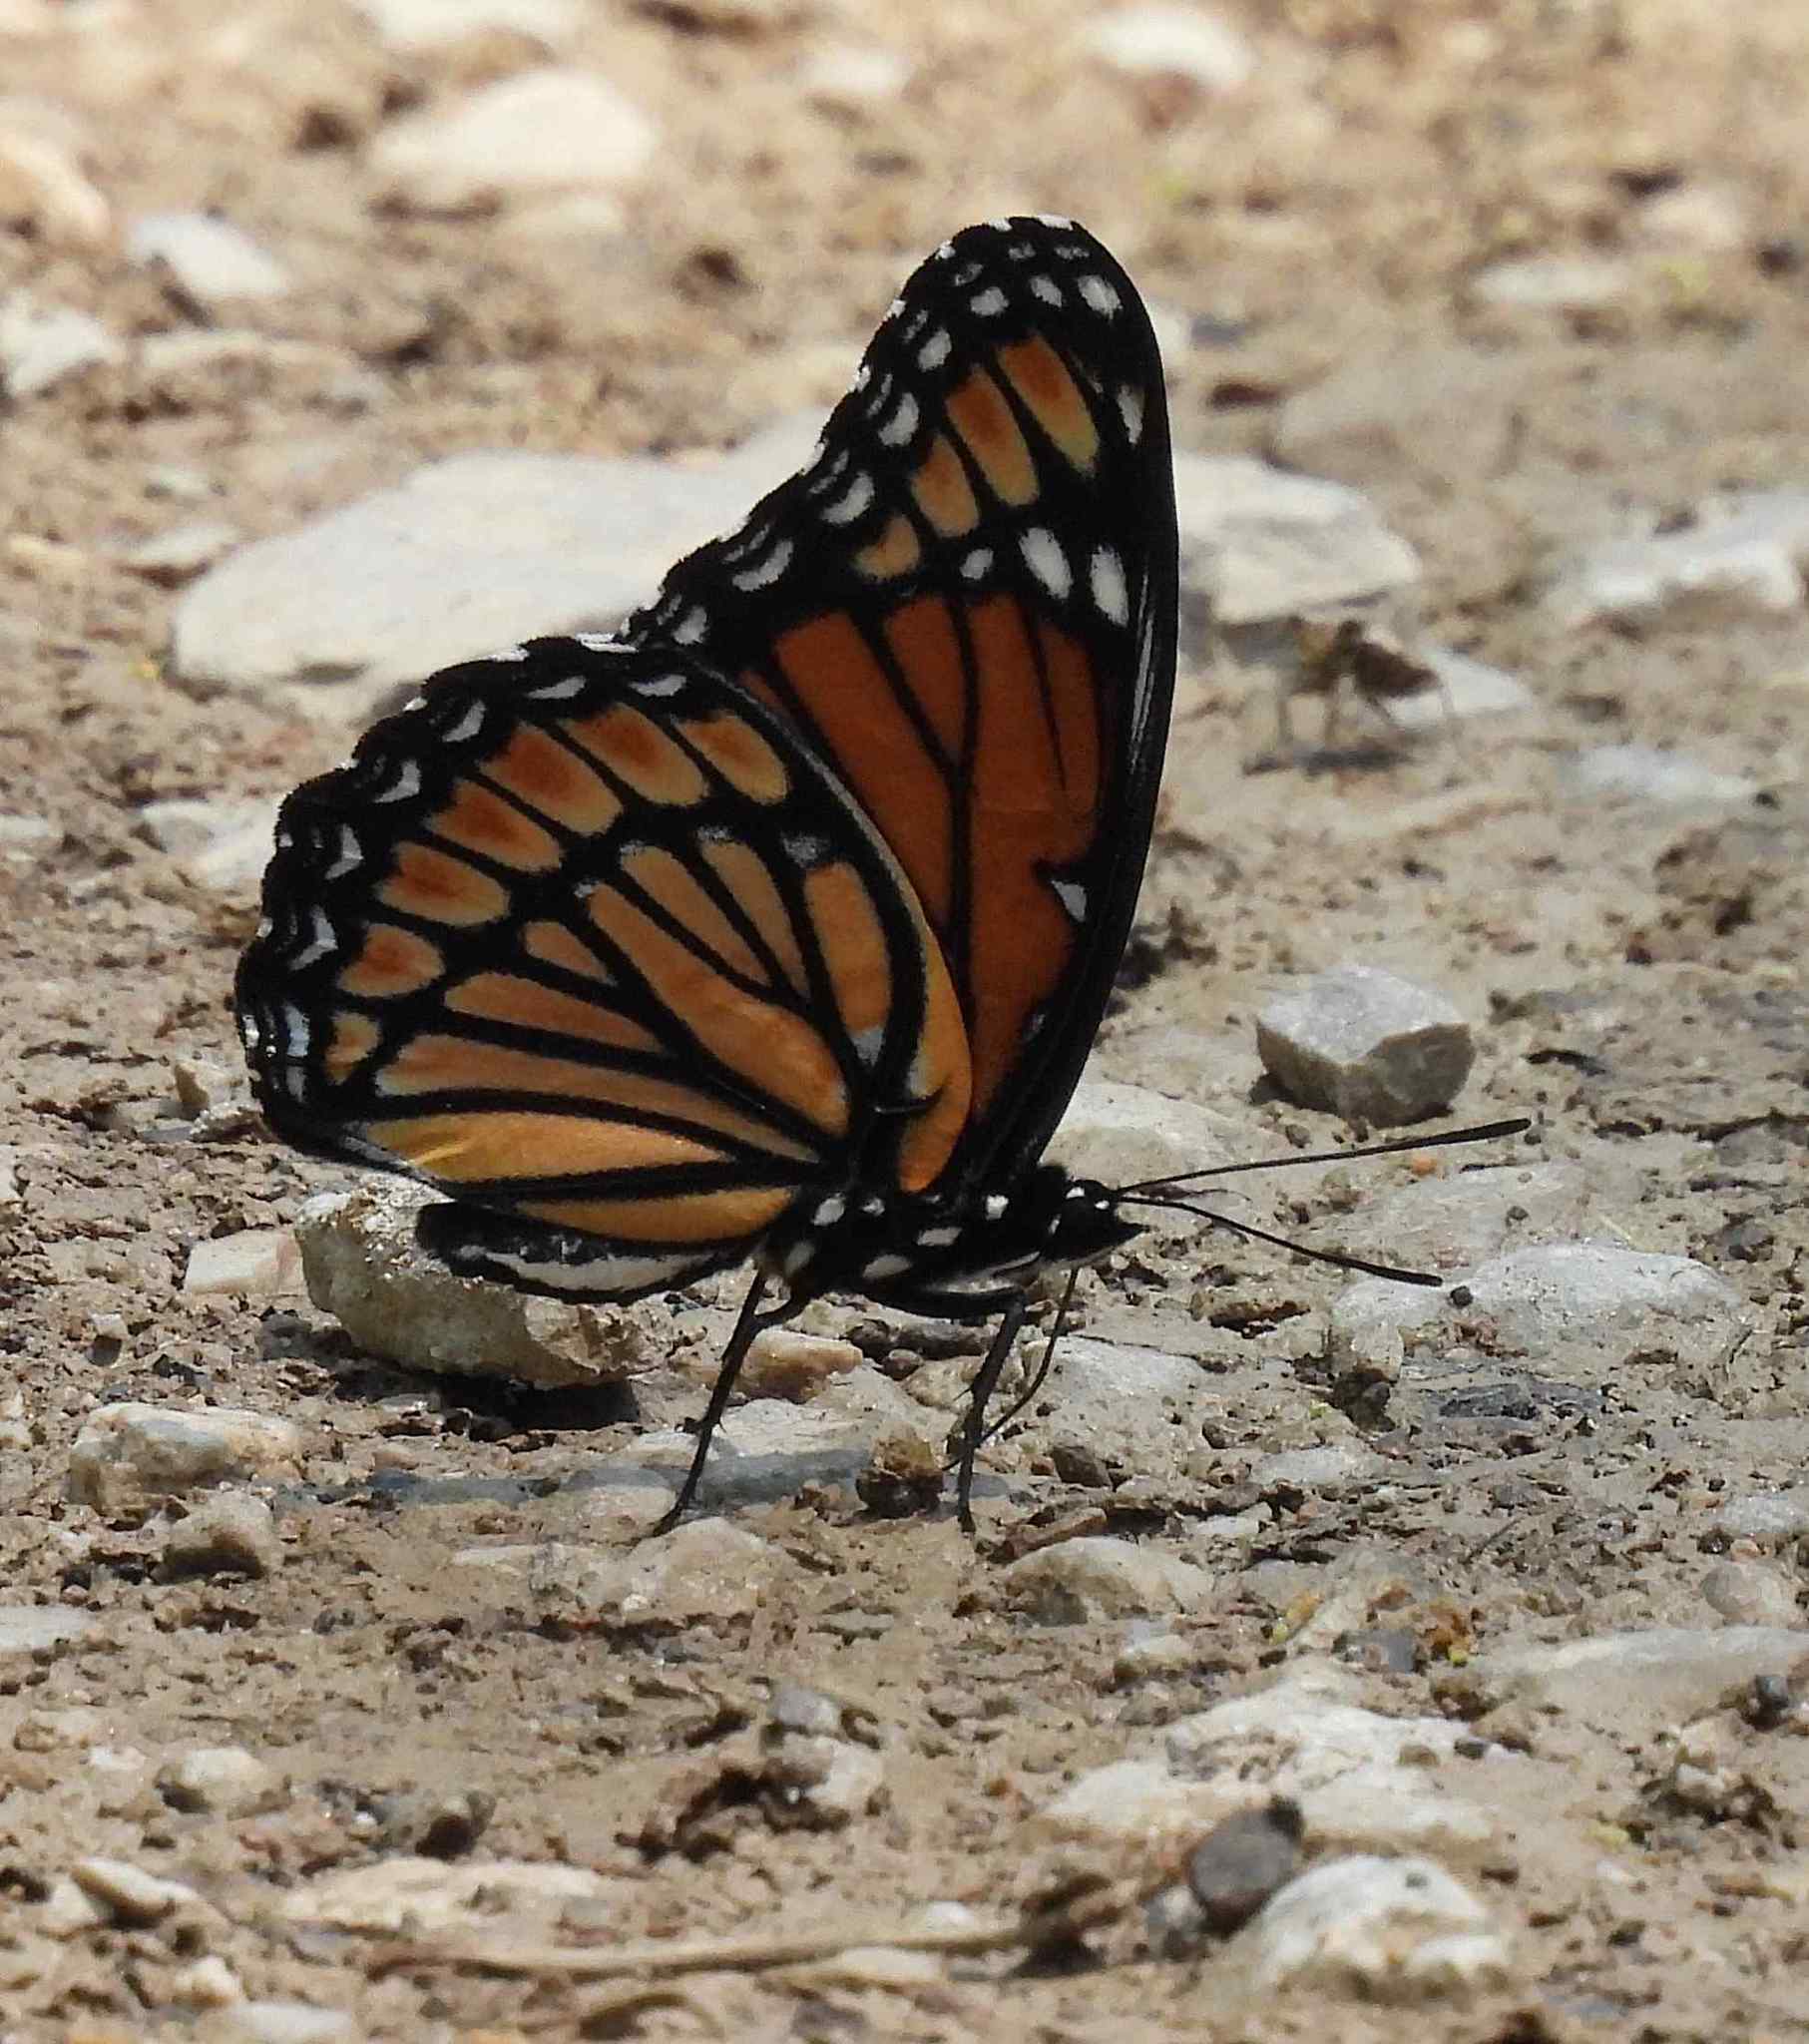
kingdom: Animalia
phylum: Arthropoda
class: Insecta
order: Lepidoptera
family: Nymphalidae
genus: Limenitis
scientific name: Limenitis archippus
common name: Viceroy
